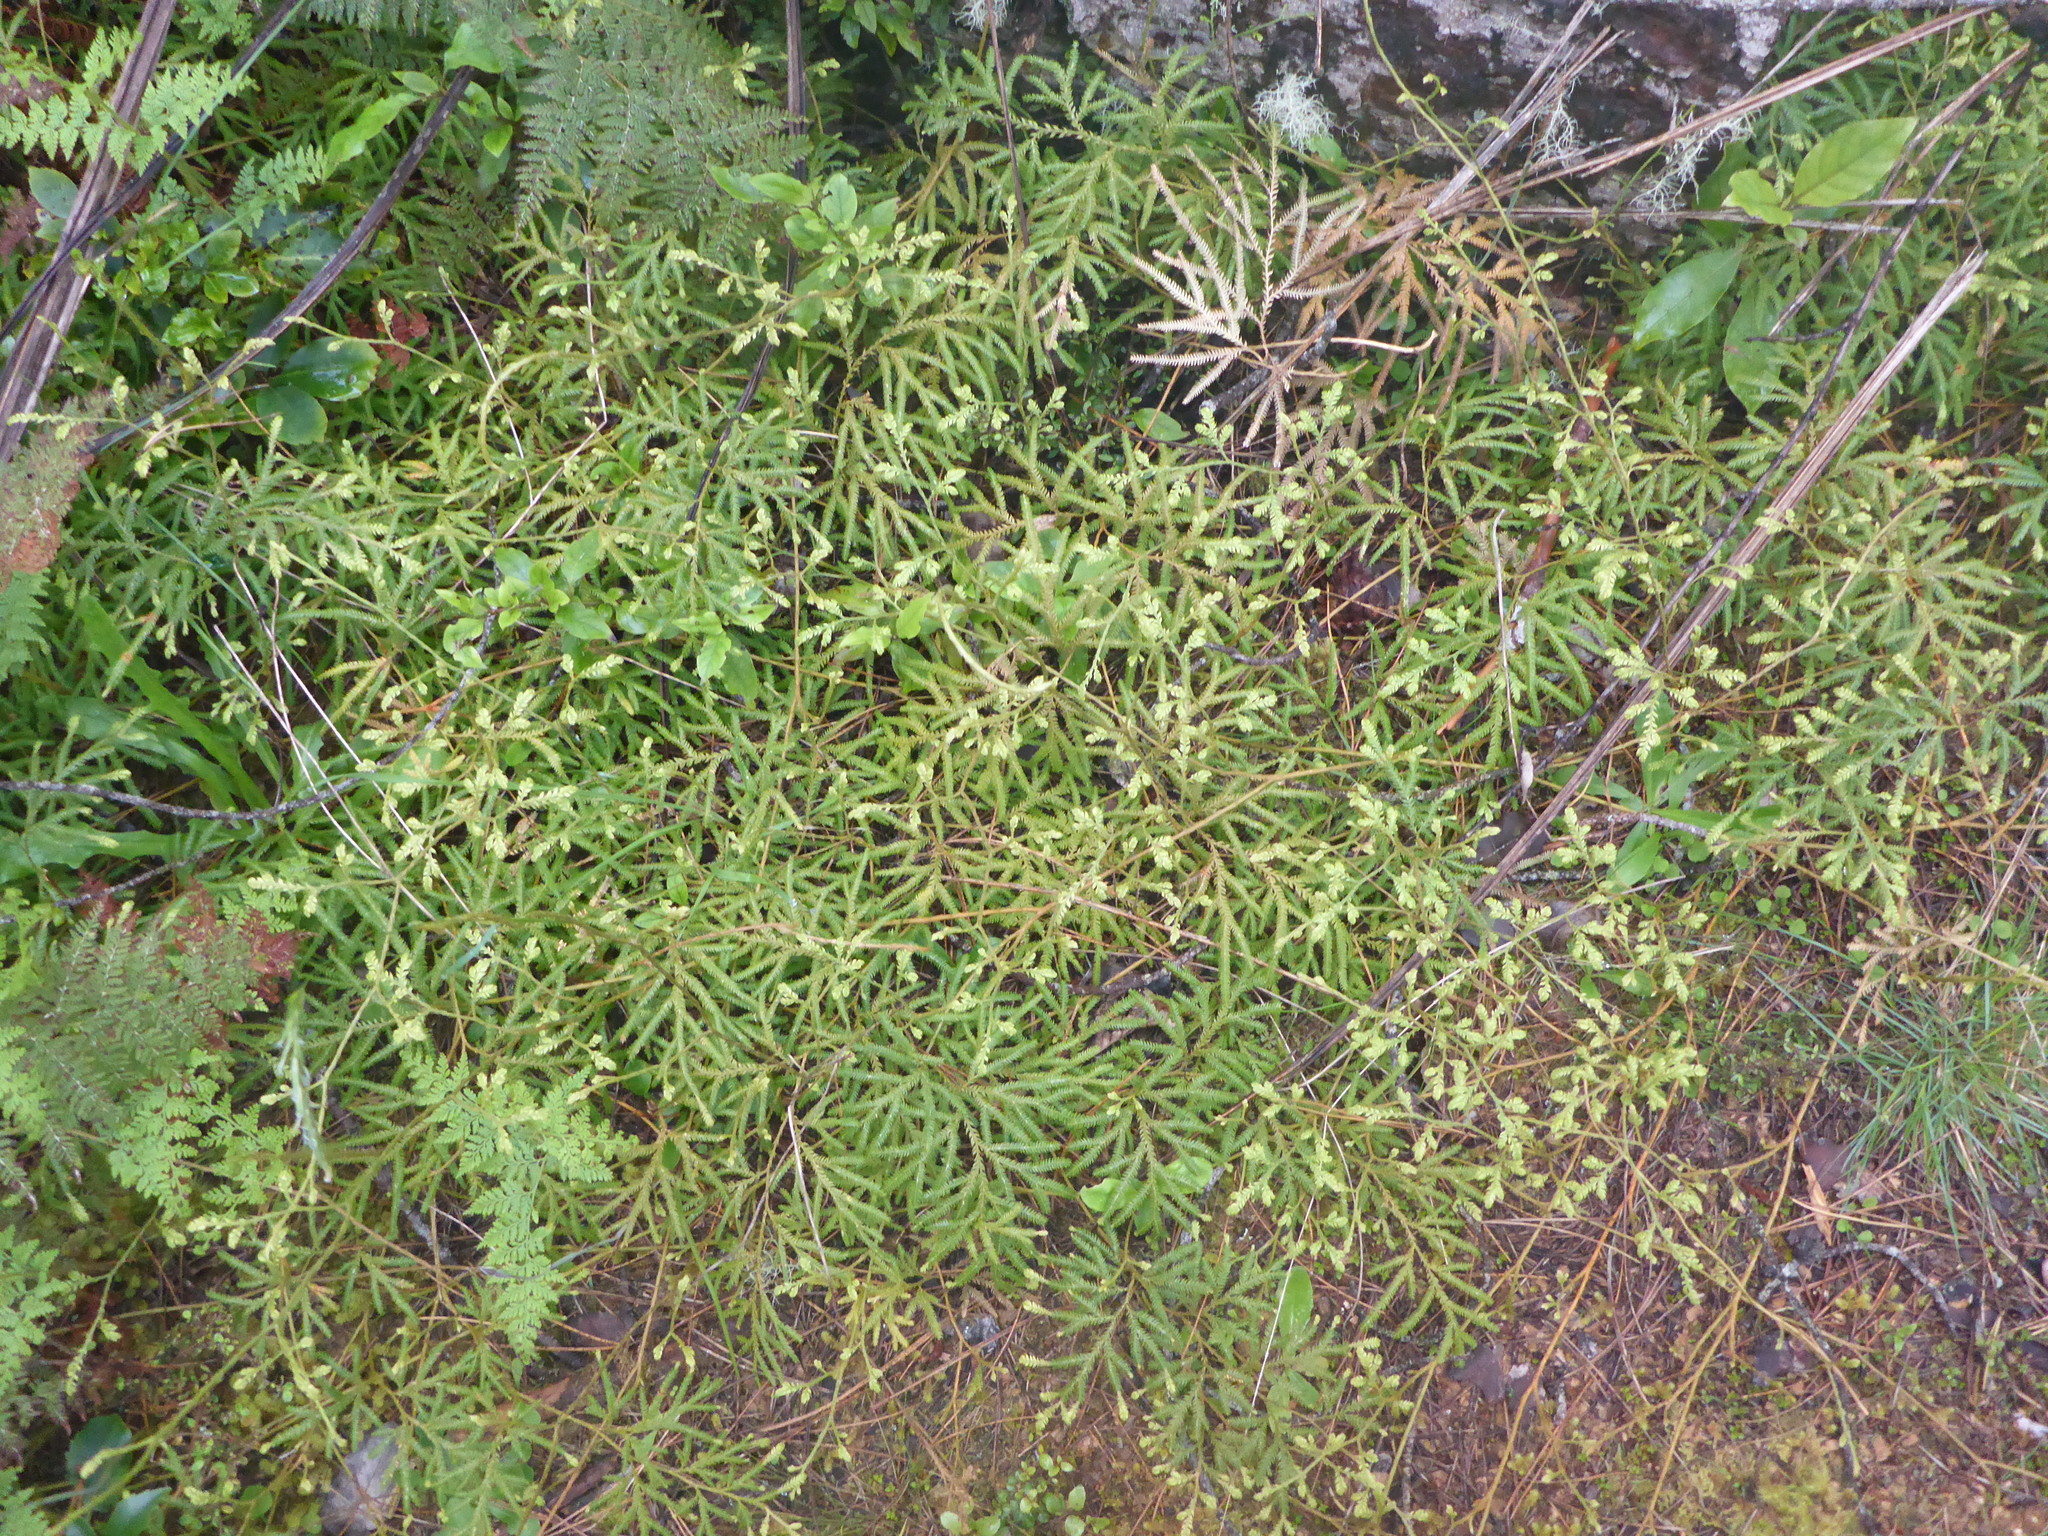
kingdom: Plantae
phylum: Tracheophyta
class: Lycopodiopsida
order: Lycopodiales
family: Lycopodiaceae
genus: Lycopodium
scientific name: Lycopodium volubile
